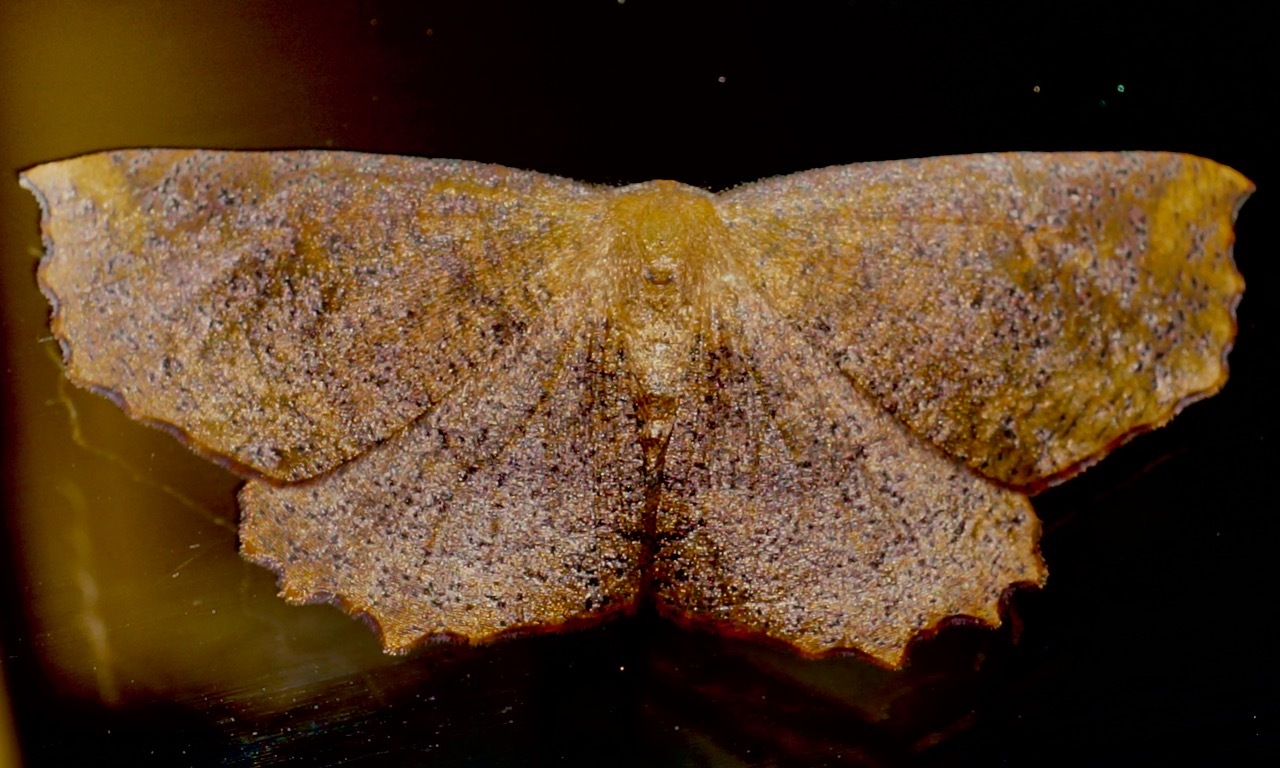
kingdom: Animalia
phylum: Arthropoda
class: Insecta
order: Lepidoptera
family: Geometridae
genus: Xyridacma
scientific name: Xyridacma ustaria
